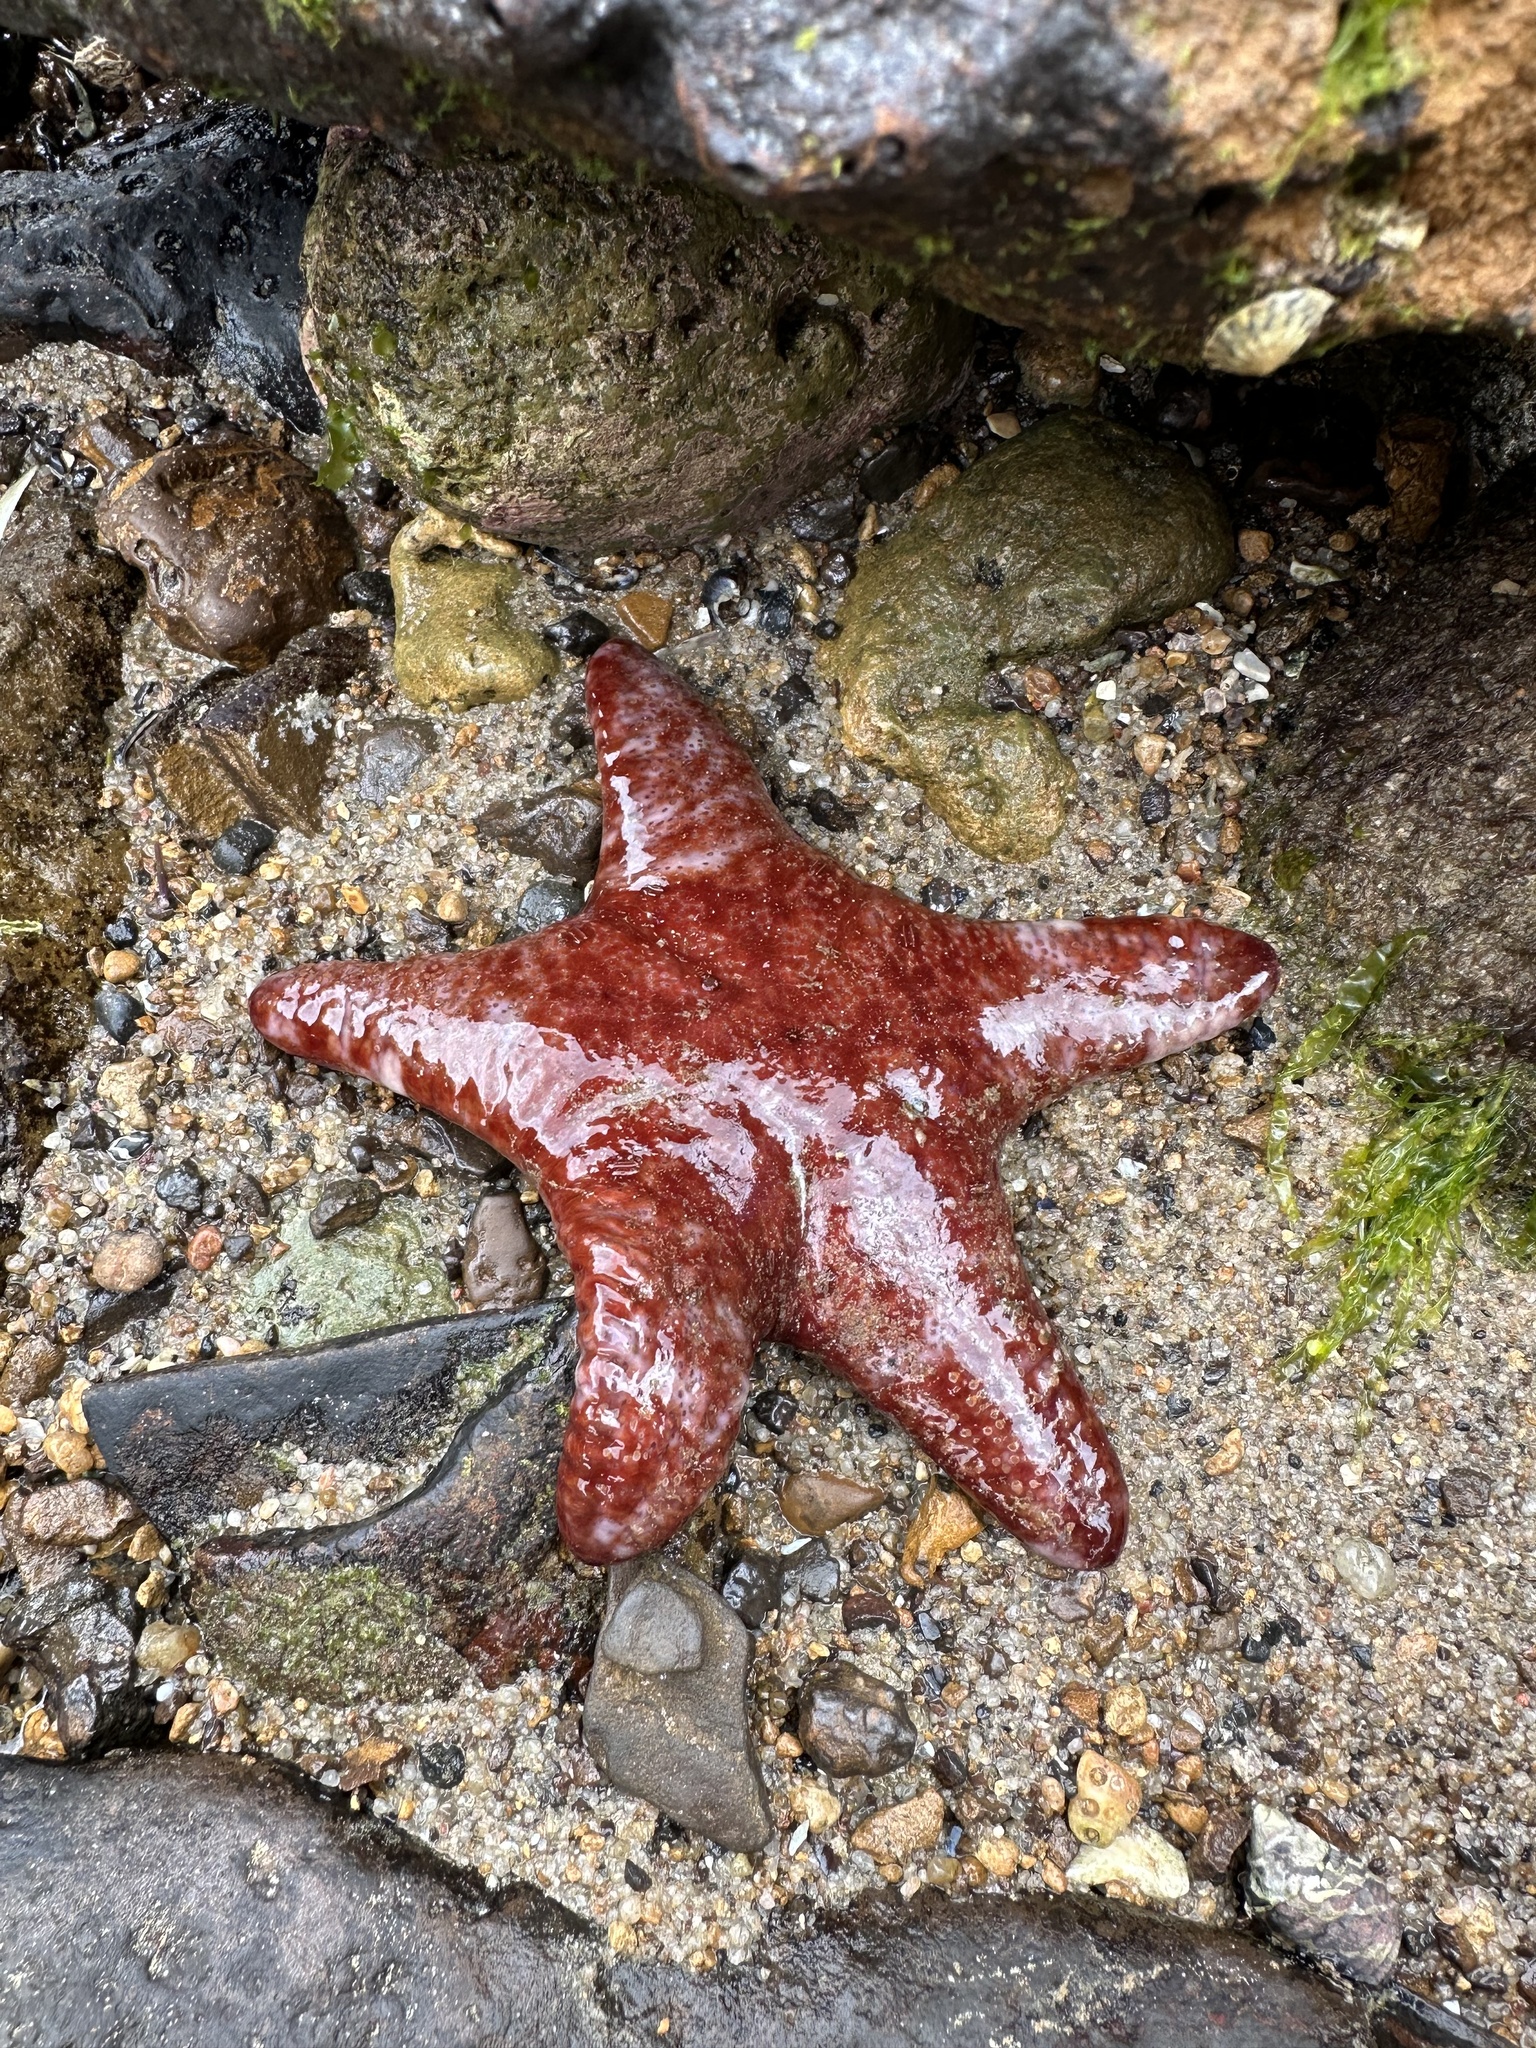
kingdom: Animalia
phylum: Echinodermata
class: Asteroidea
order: Valvatida
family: Asteropseidae
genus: Petricia
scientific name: Petricia vernicina
